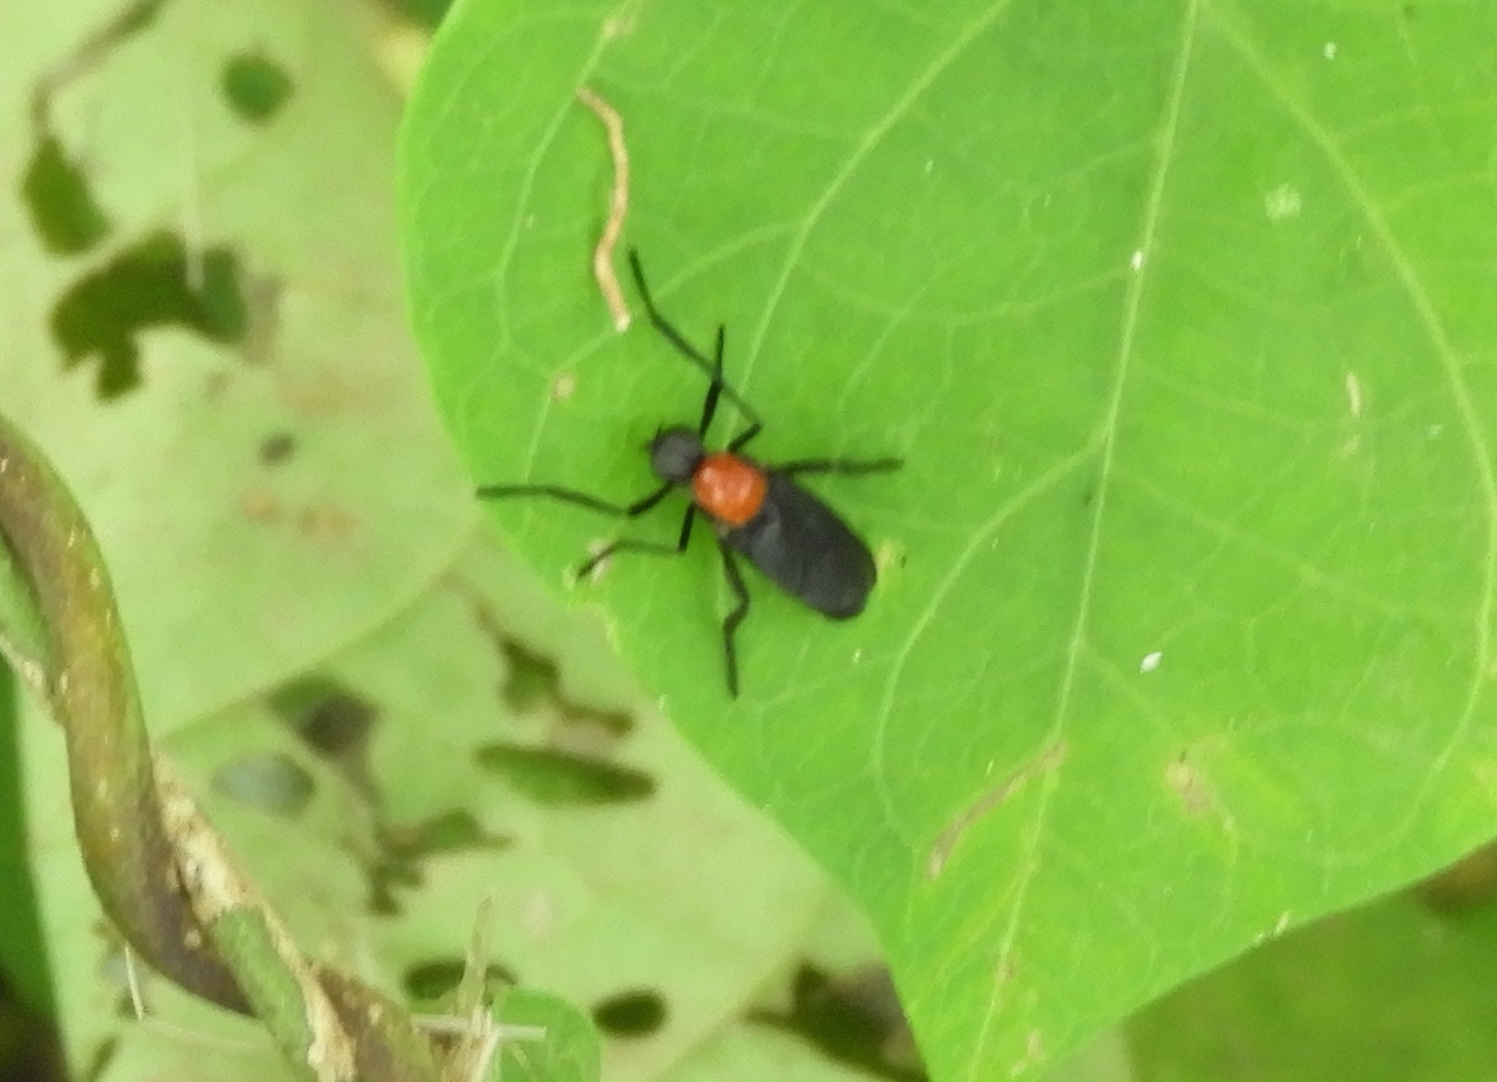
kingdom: Animalia
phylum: Arthropoda
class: Insecta
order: Diptera
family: Bibionidae
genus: Plecia
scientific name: Plecia nearctica
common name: March fly
